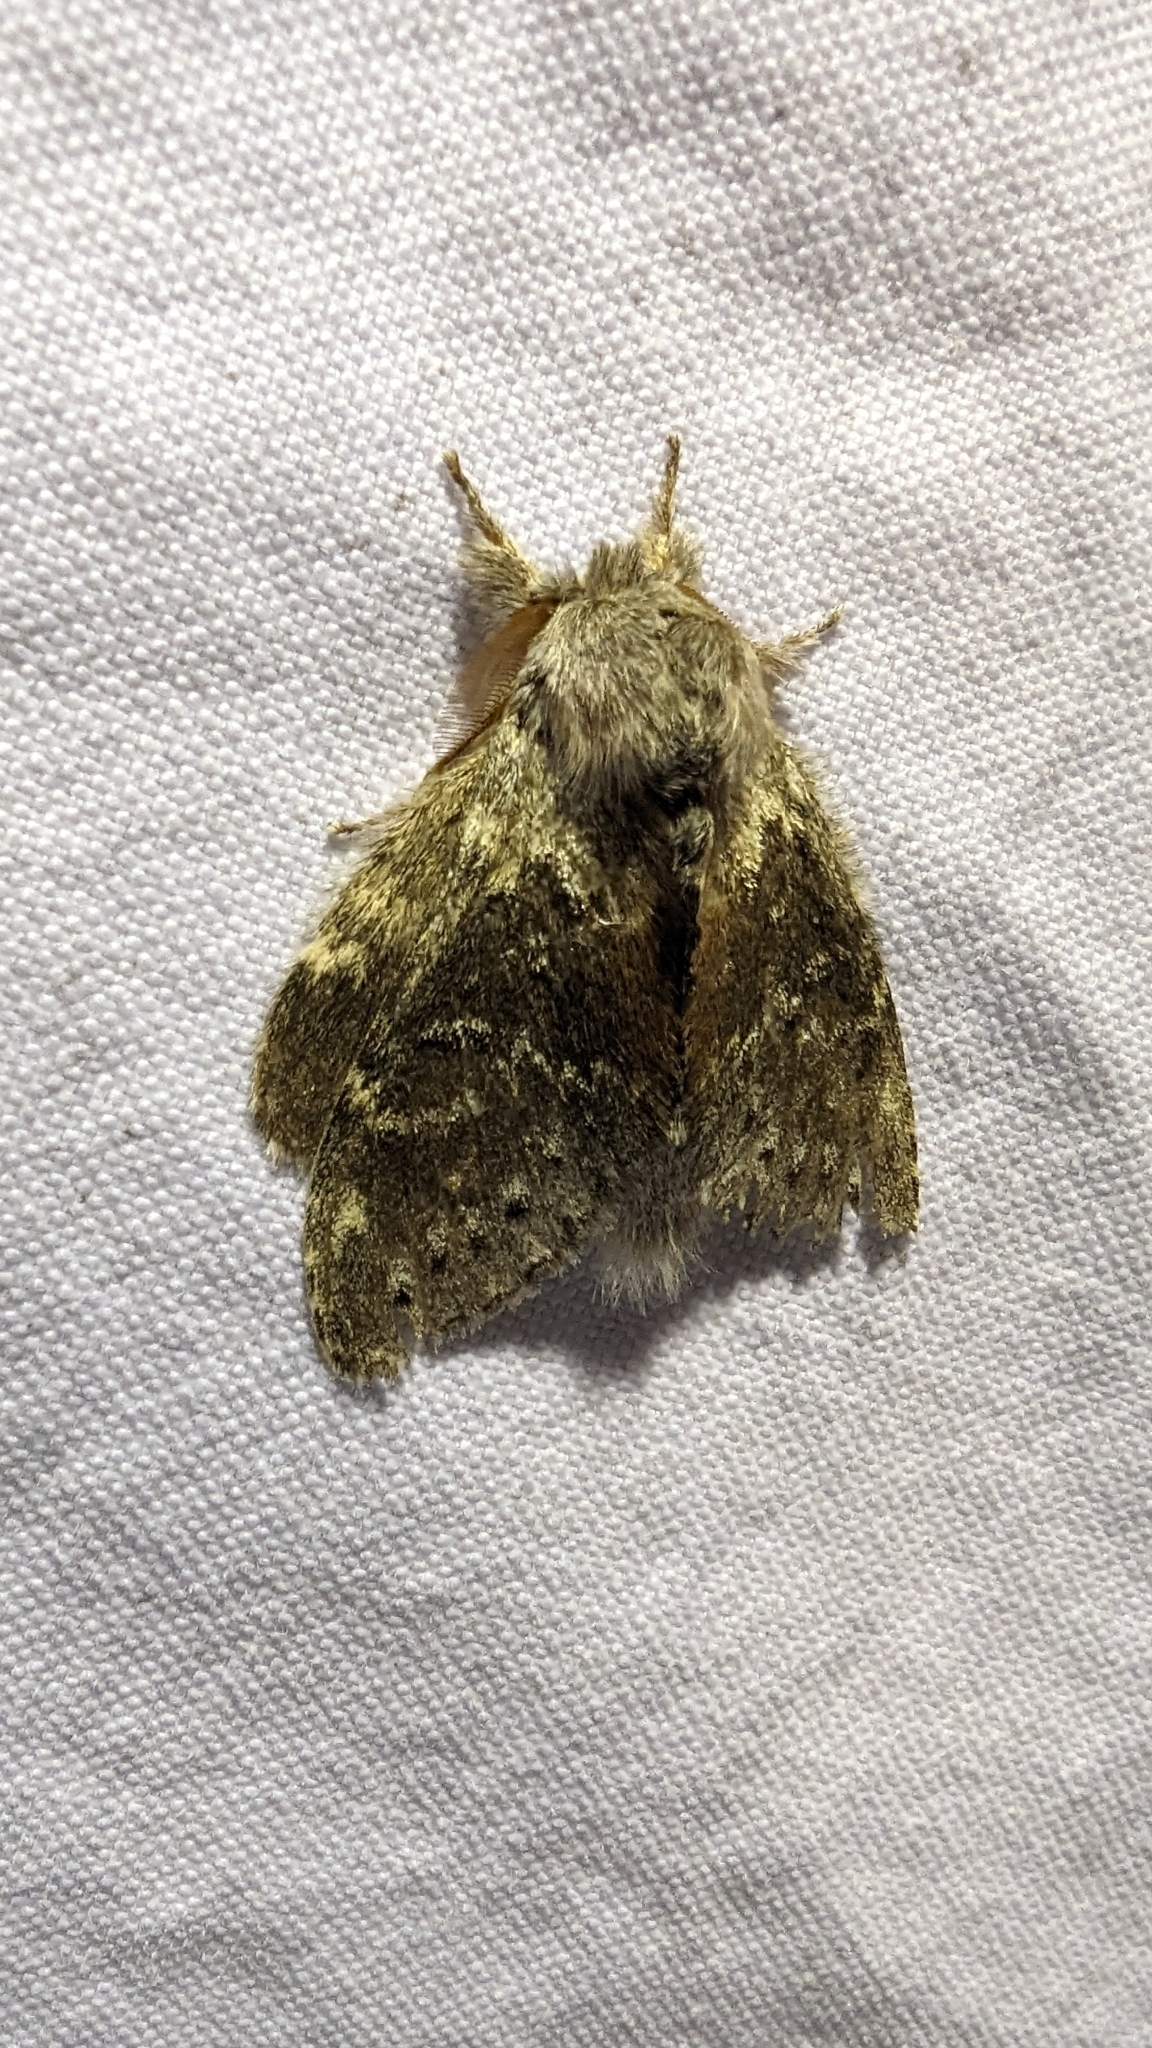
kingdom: Animalia
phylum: Arthropoda
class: Insecta
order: Lepidoptera
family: Notodontidae
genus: Stauropus
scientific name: Stauropus fagi
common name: Lobster moth
